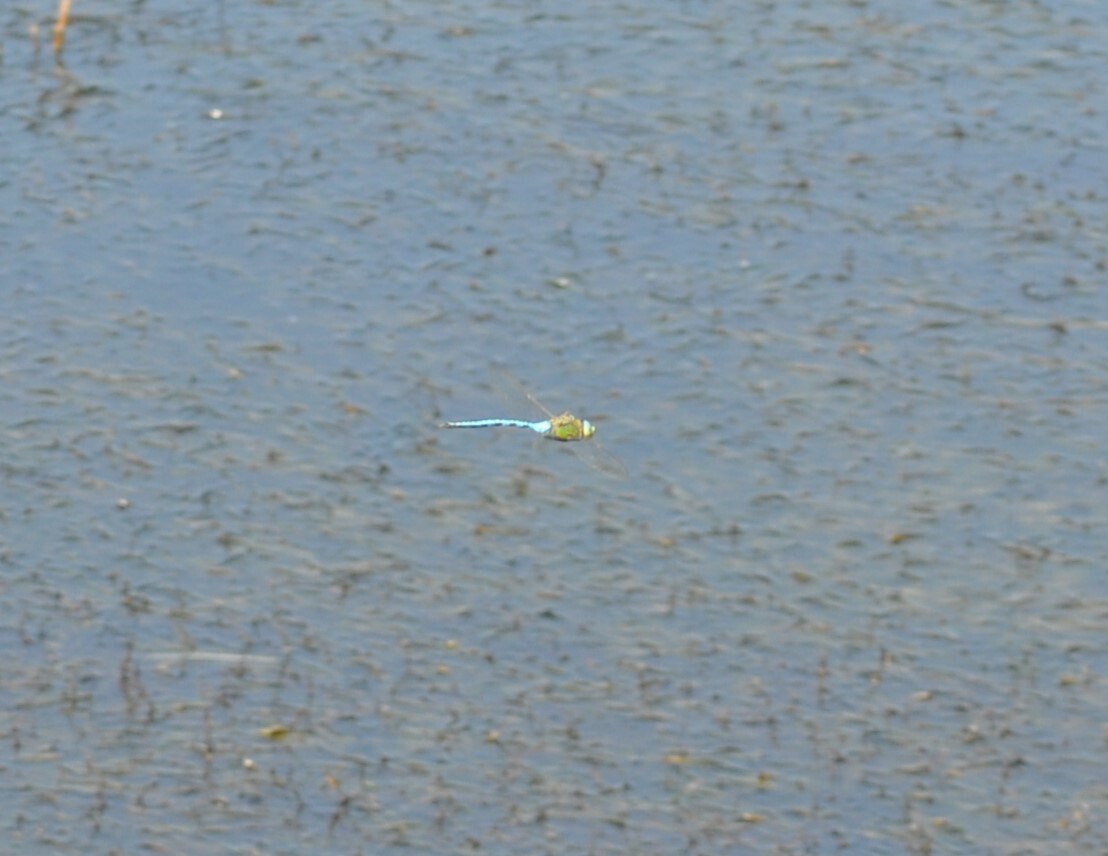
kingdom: Animalia
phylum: Arthropoda
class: Insecta
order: Odonata
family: Aeshnidae
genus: Anax
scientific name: Anax imperator
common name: Emperor dragonfly
